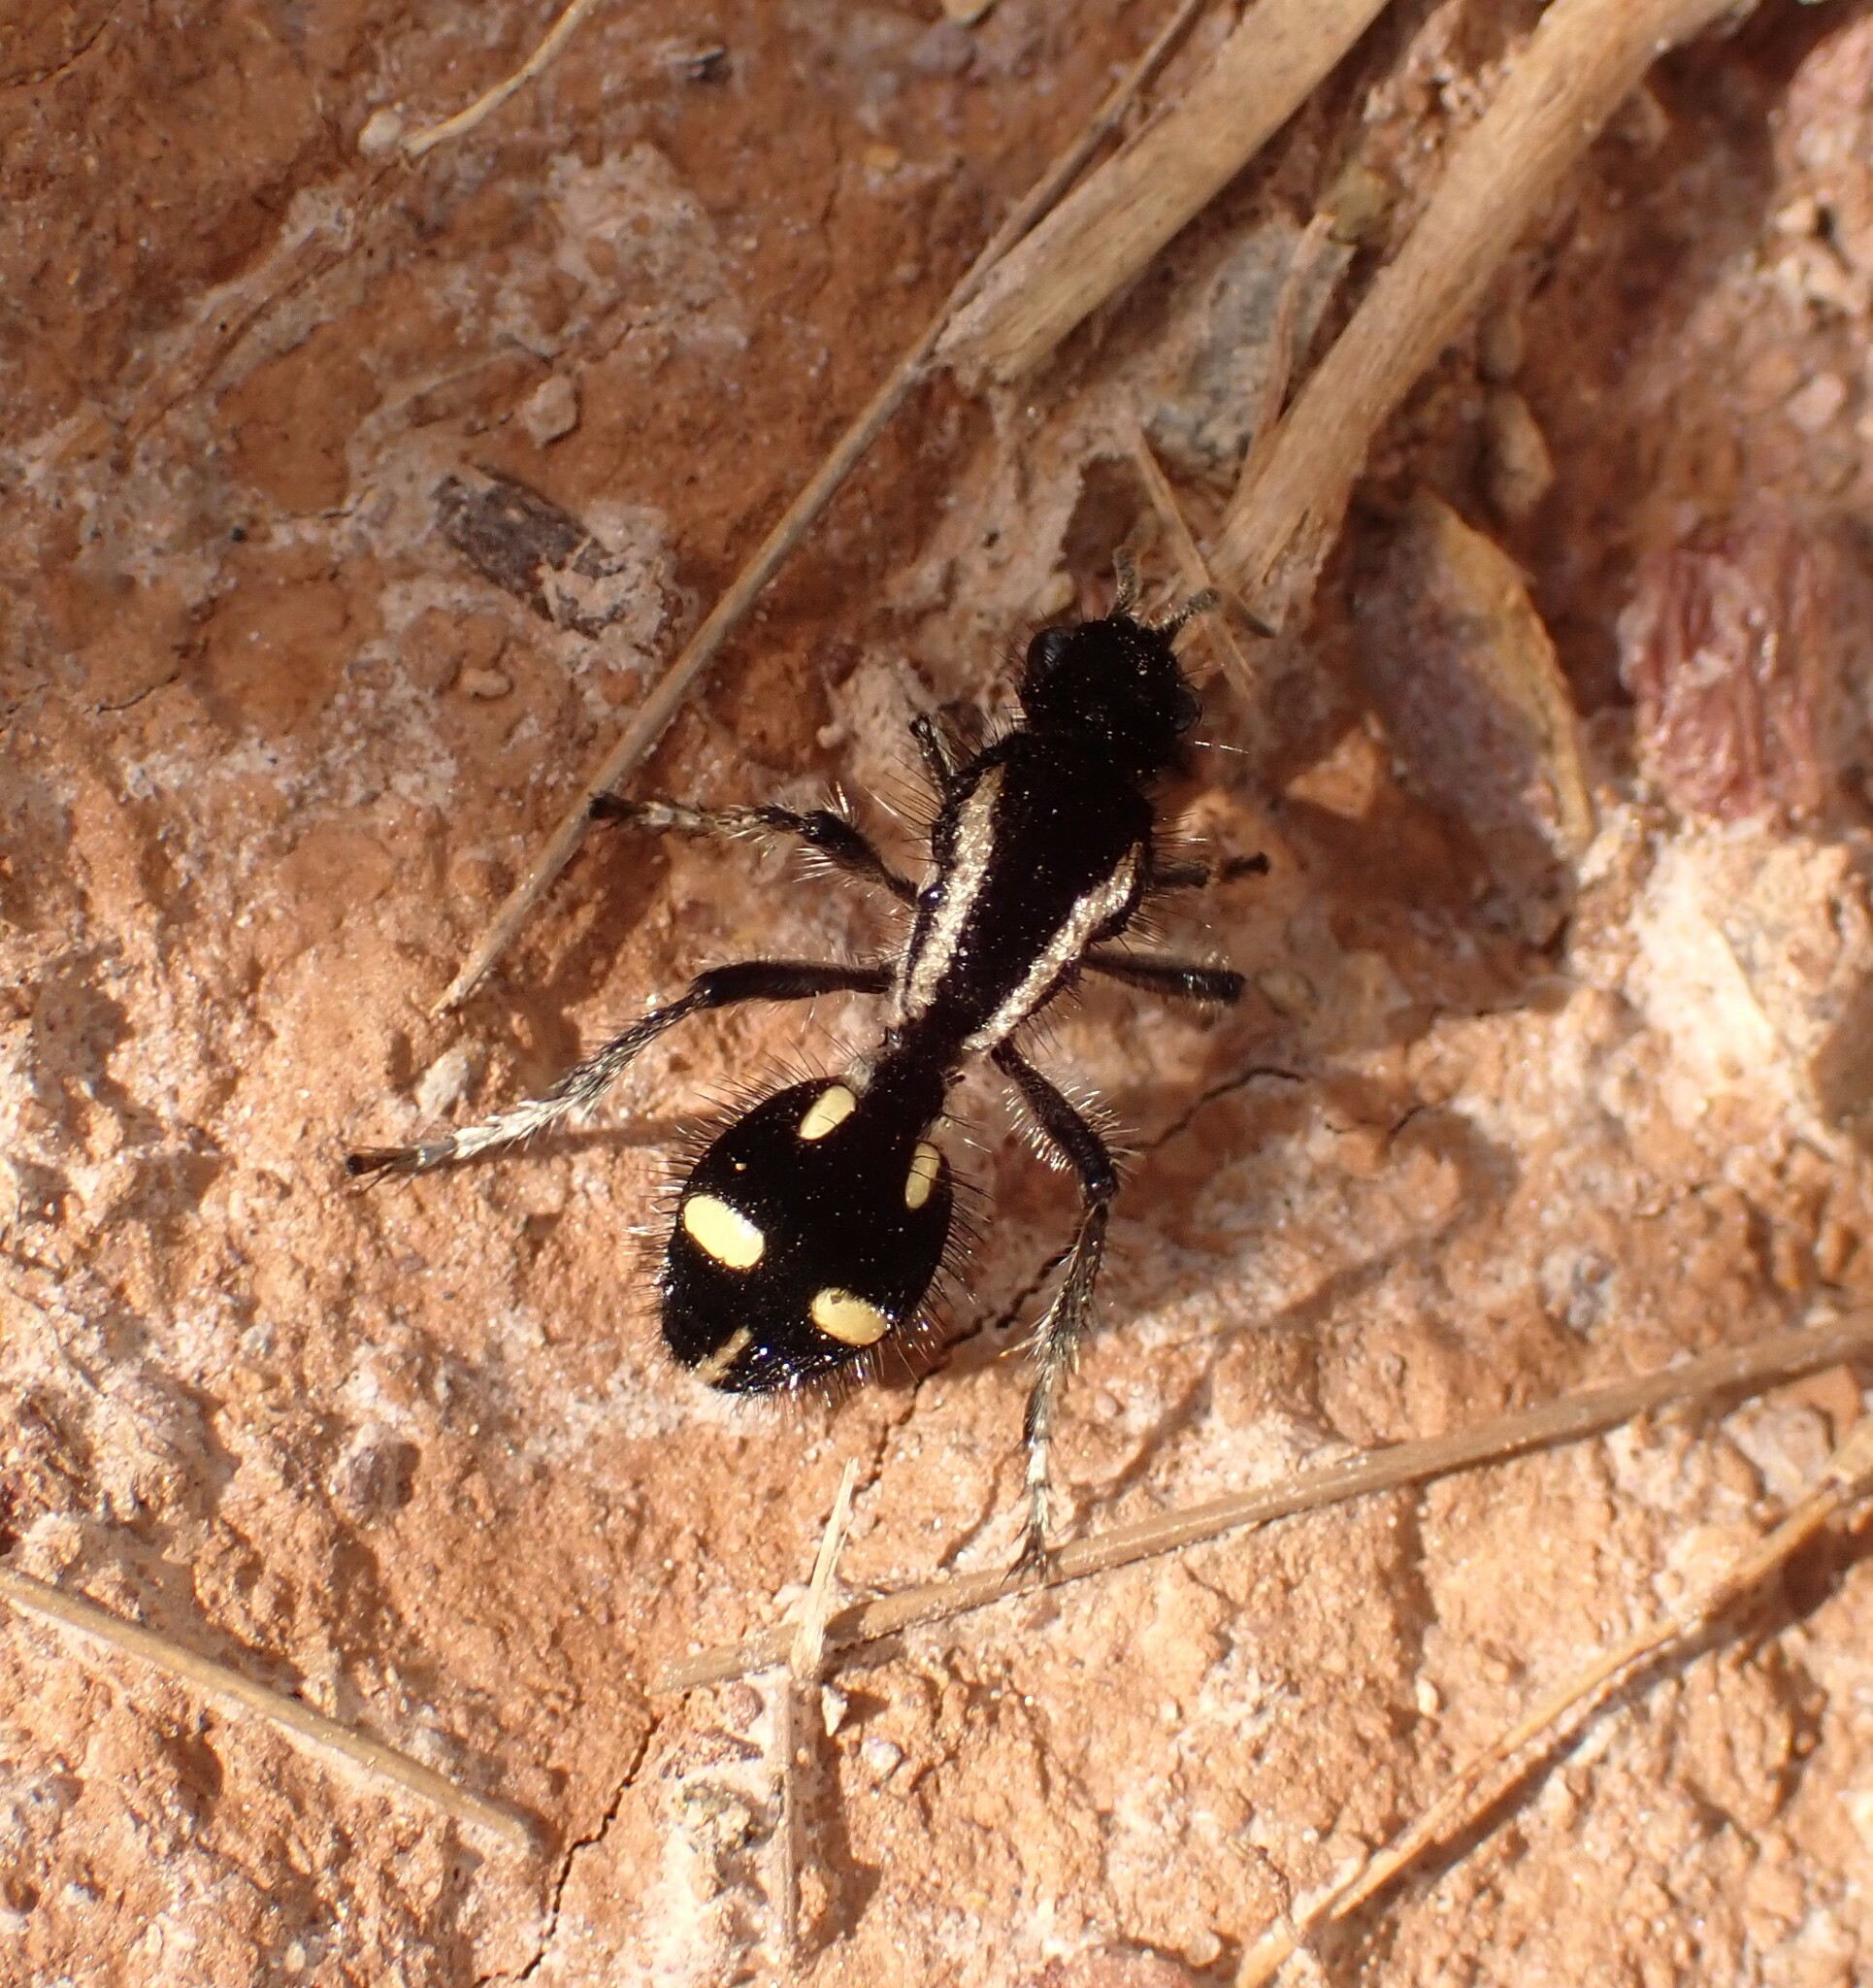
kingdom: Animalia
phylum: Arthropoda
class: Insecta
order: Hymenoptera
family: Mutillidae
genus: Traumatomutilla
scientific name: Traumatomutilla
